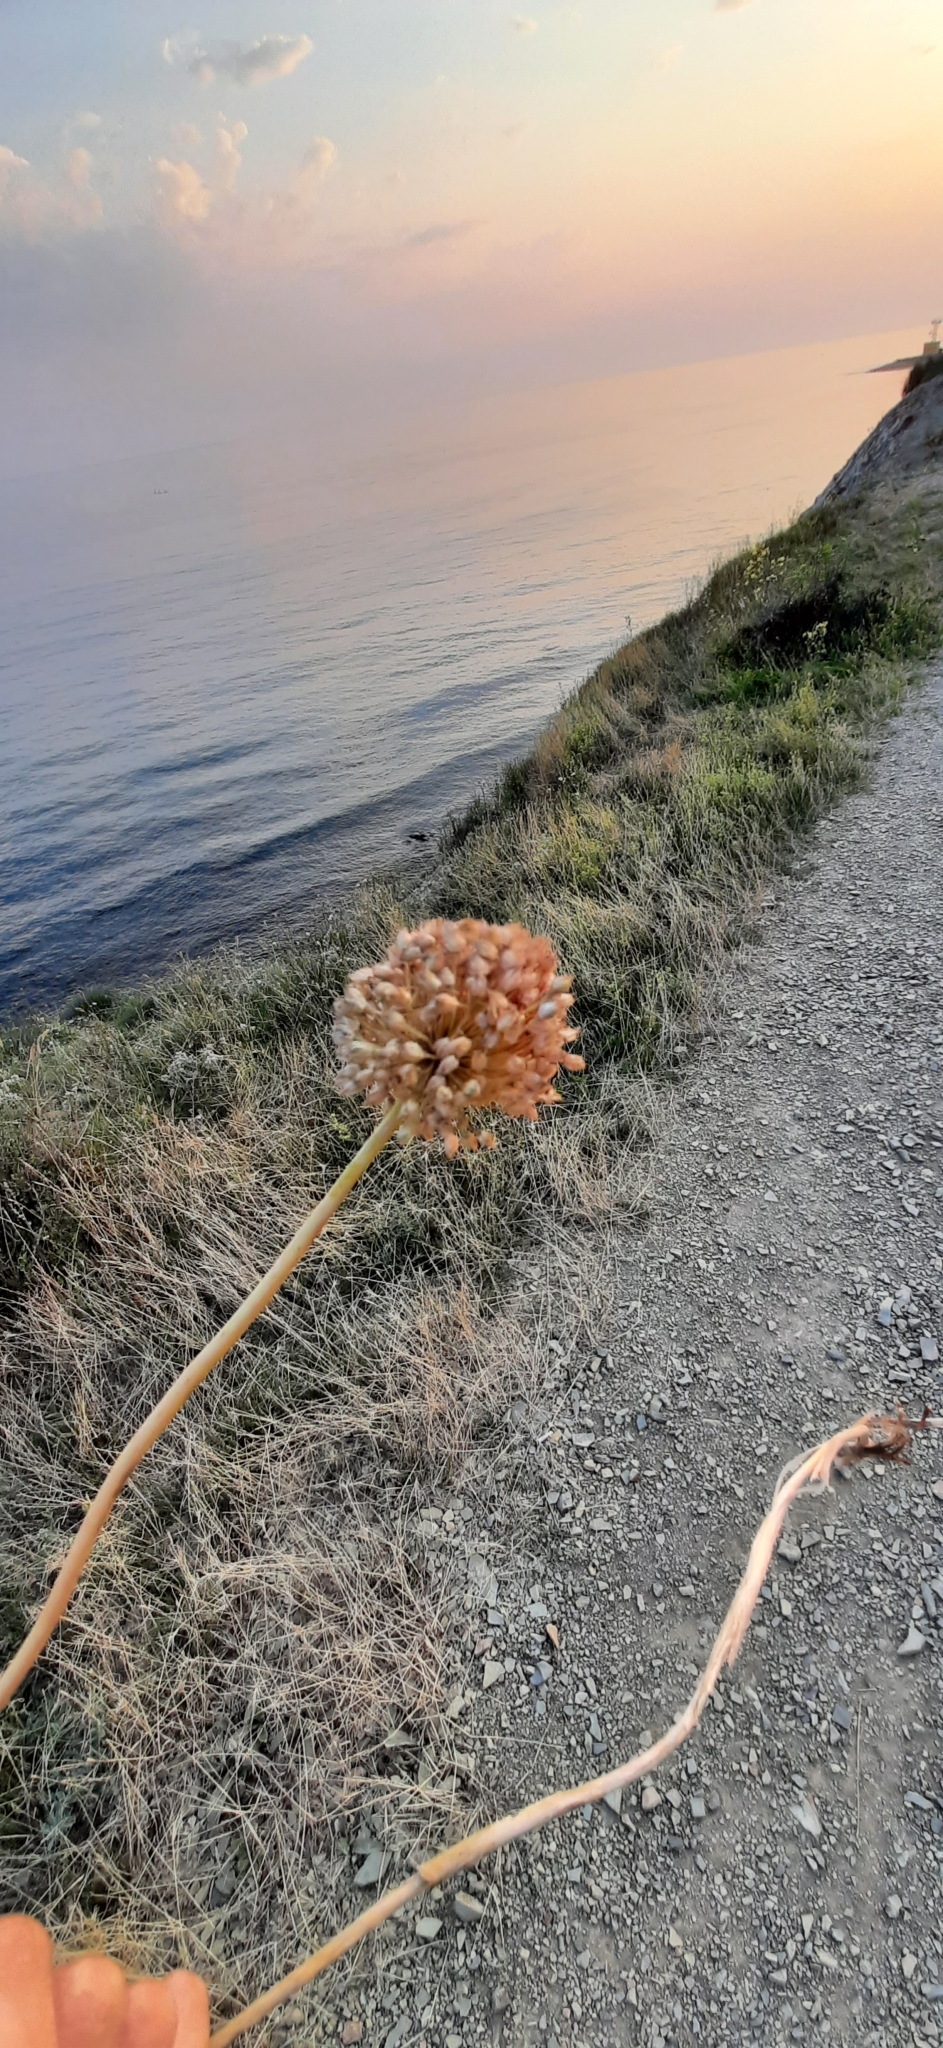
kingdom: Plantae
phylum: Tracheophyta
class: Liliopsida
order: Asparagales
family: Amaryllidaceae
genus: Allium
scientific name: Allium atroviolaceum
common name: Broadleaf wild leek
